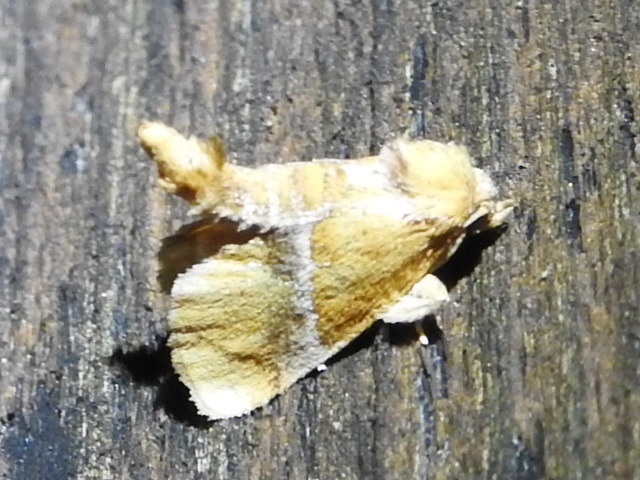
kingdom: Animalia
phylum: Arthropoda
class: Insecta
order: Lepidoptera
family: Limacodidae
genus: Lithacodes
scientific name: Lithacodes fasciola
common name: Yellow-shouldered slug moth
